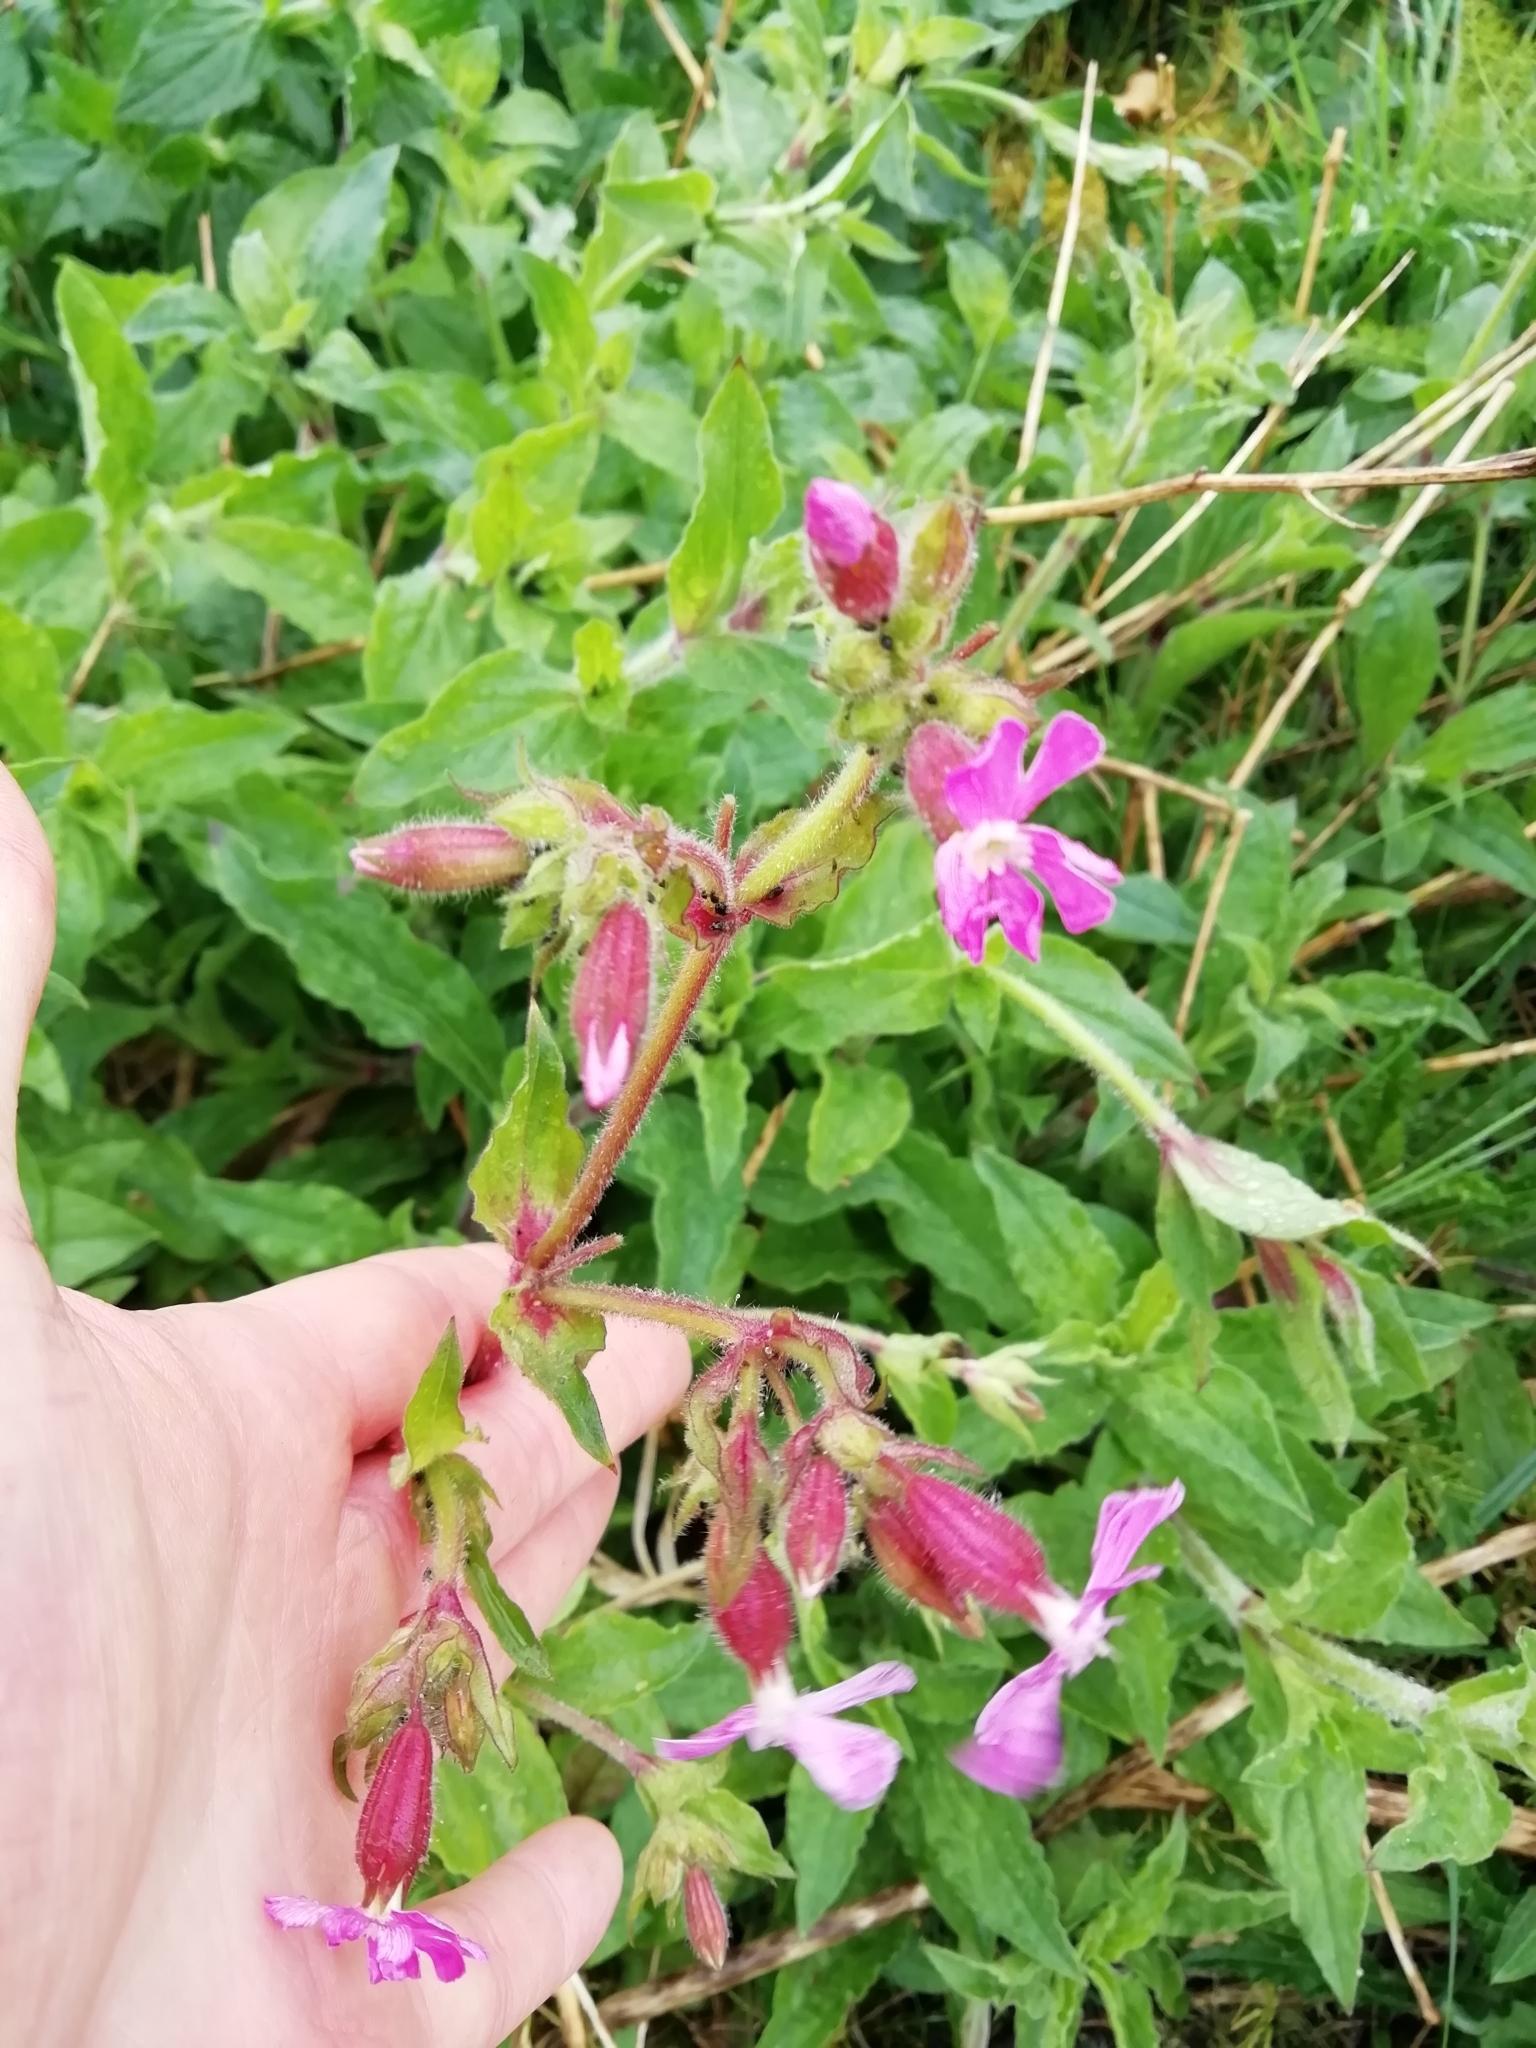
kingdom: Plantae
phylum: Tracheophyta
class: Magnoliopsida
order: Caryophyllales
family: Caryophyllaceae
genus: Silene
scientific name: Silene dioica
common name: Red campion
